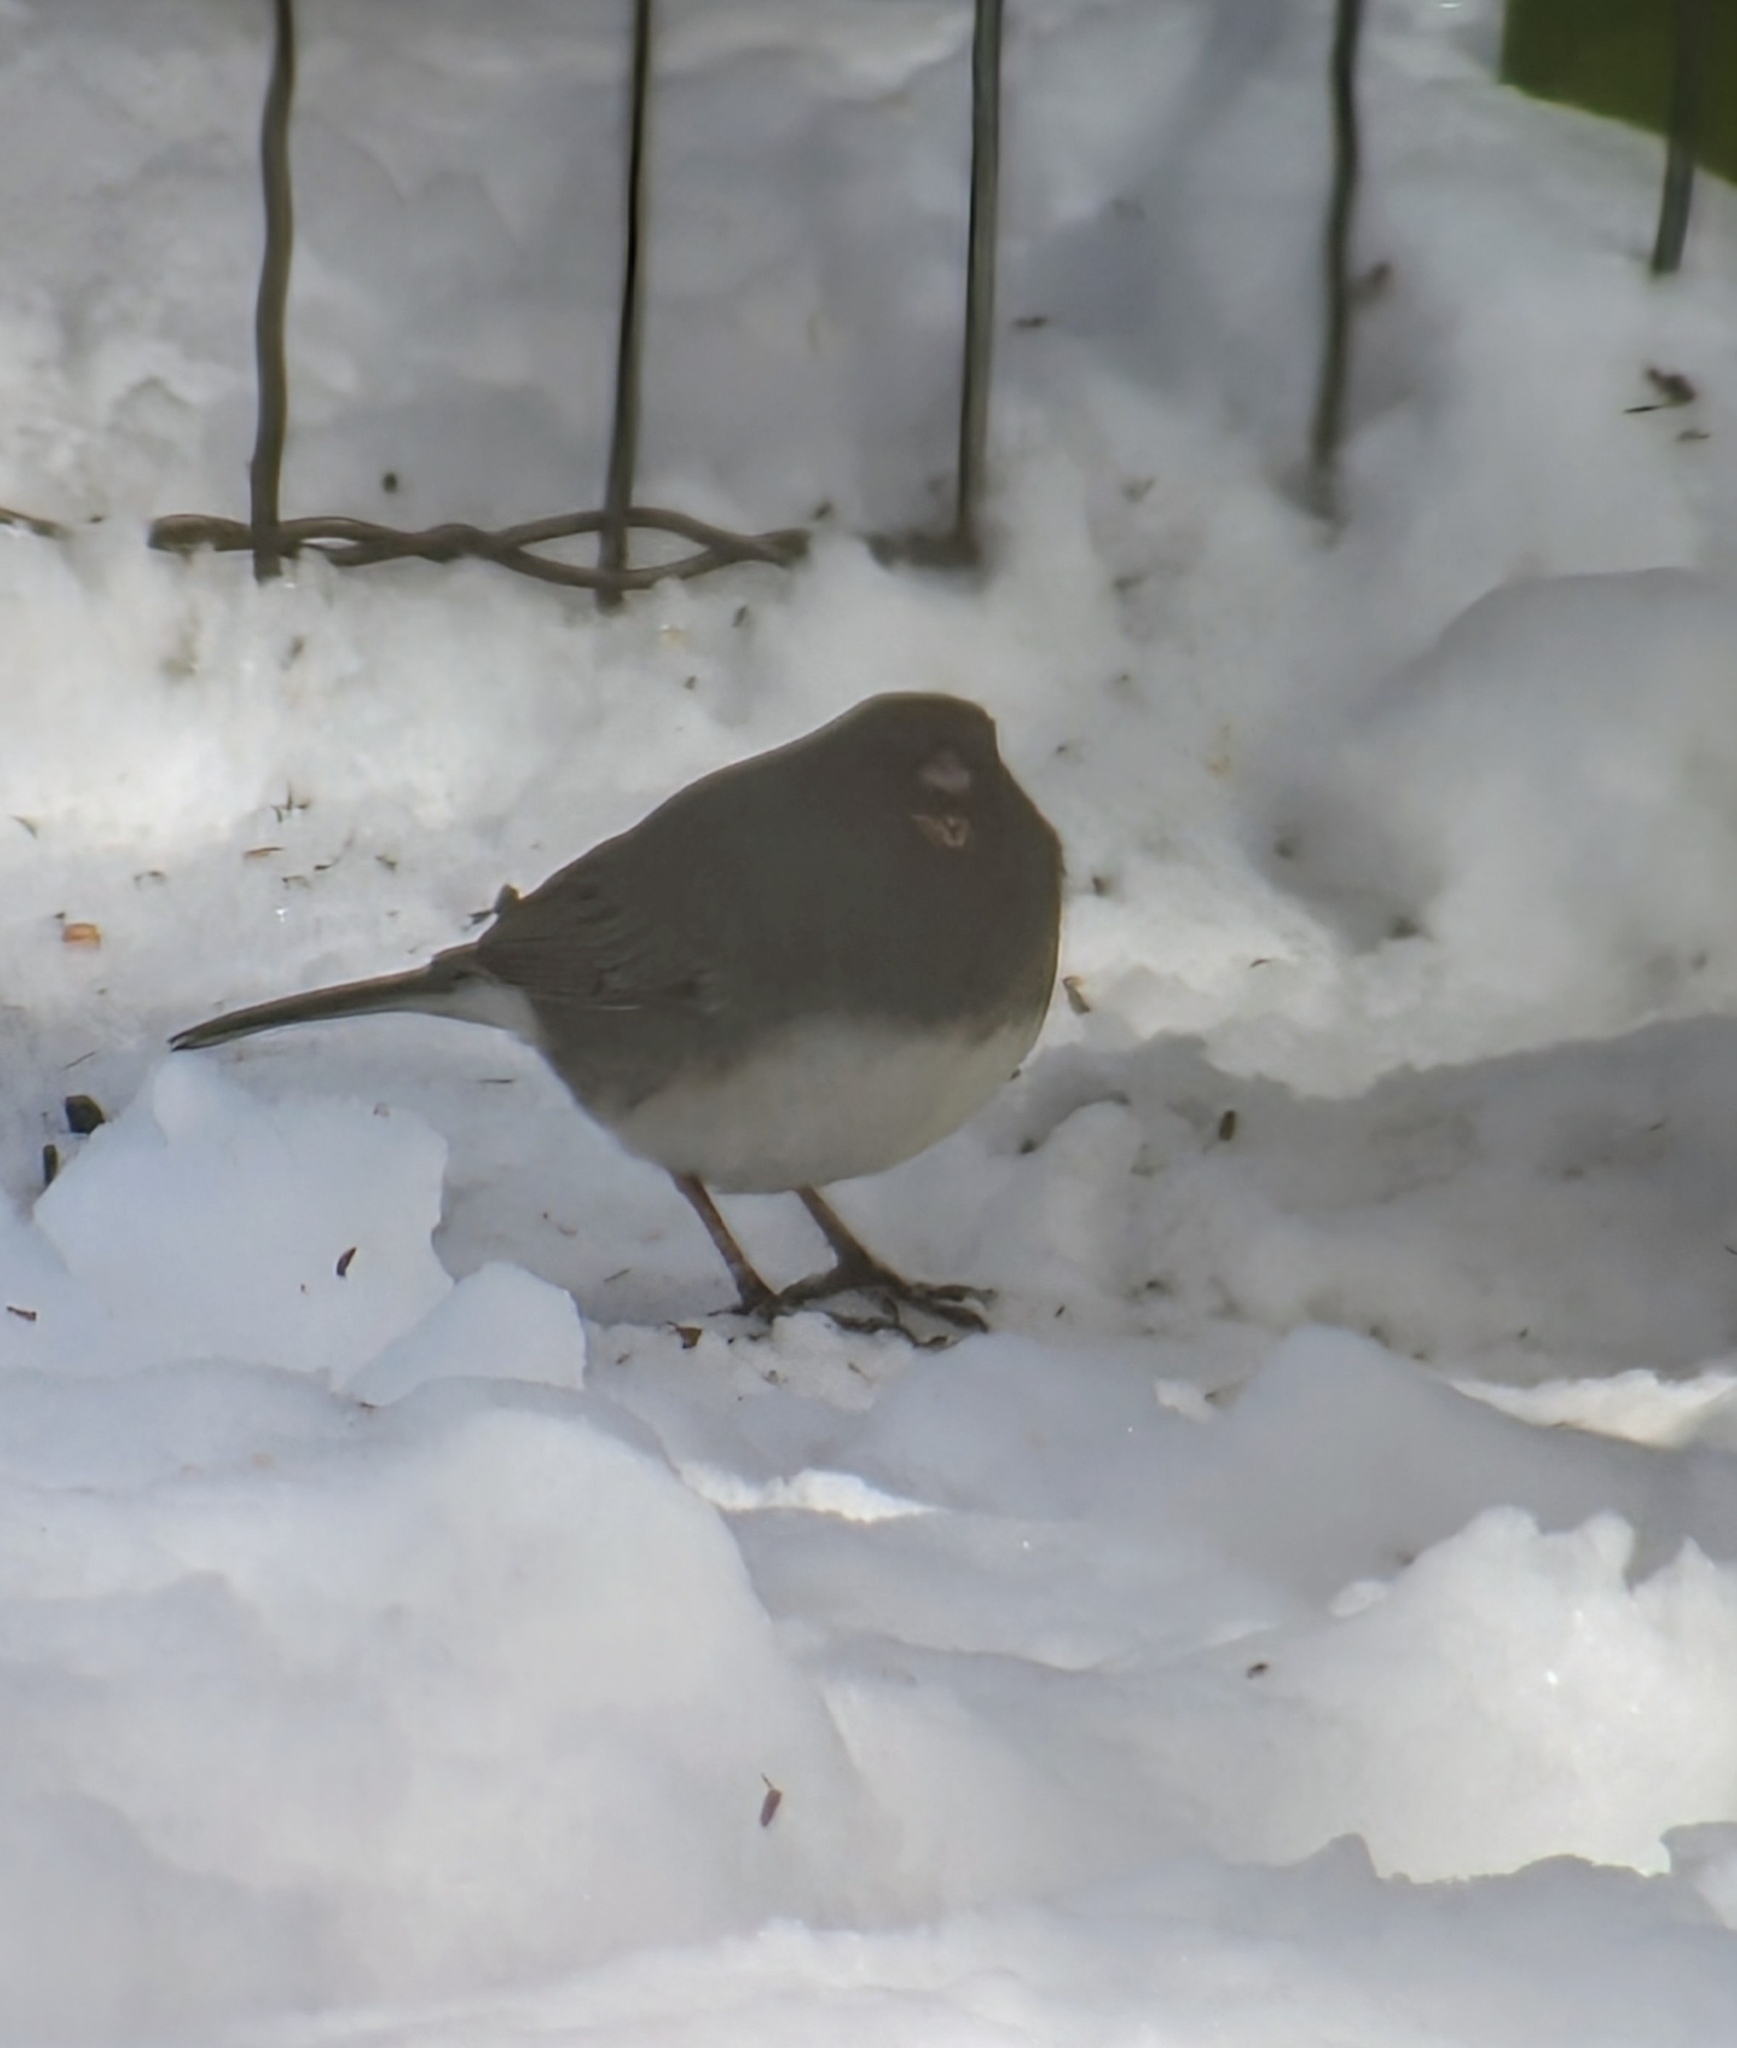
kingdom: Animalia
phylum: Chordata
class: Aves
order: Passeriformes
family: Passerellidae
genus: Junco
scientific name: Junco hyemalis
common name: Dark-eyed junco
